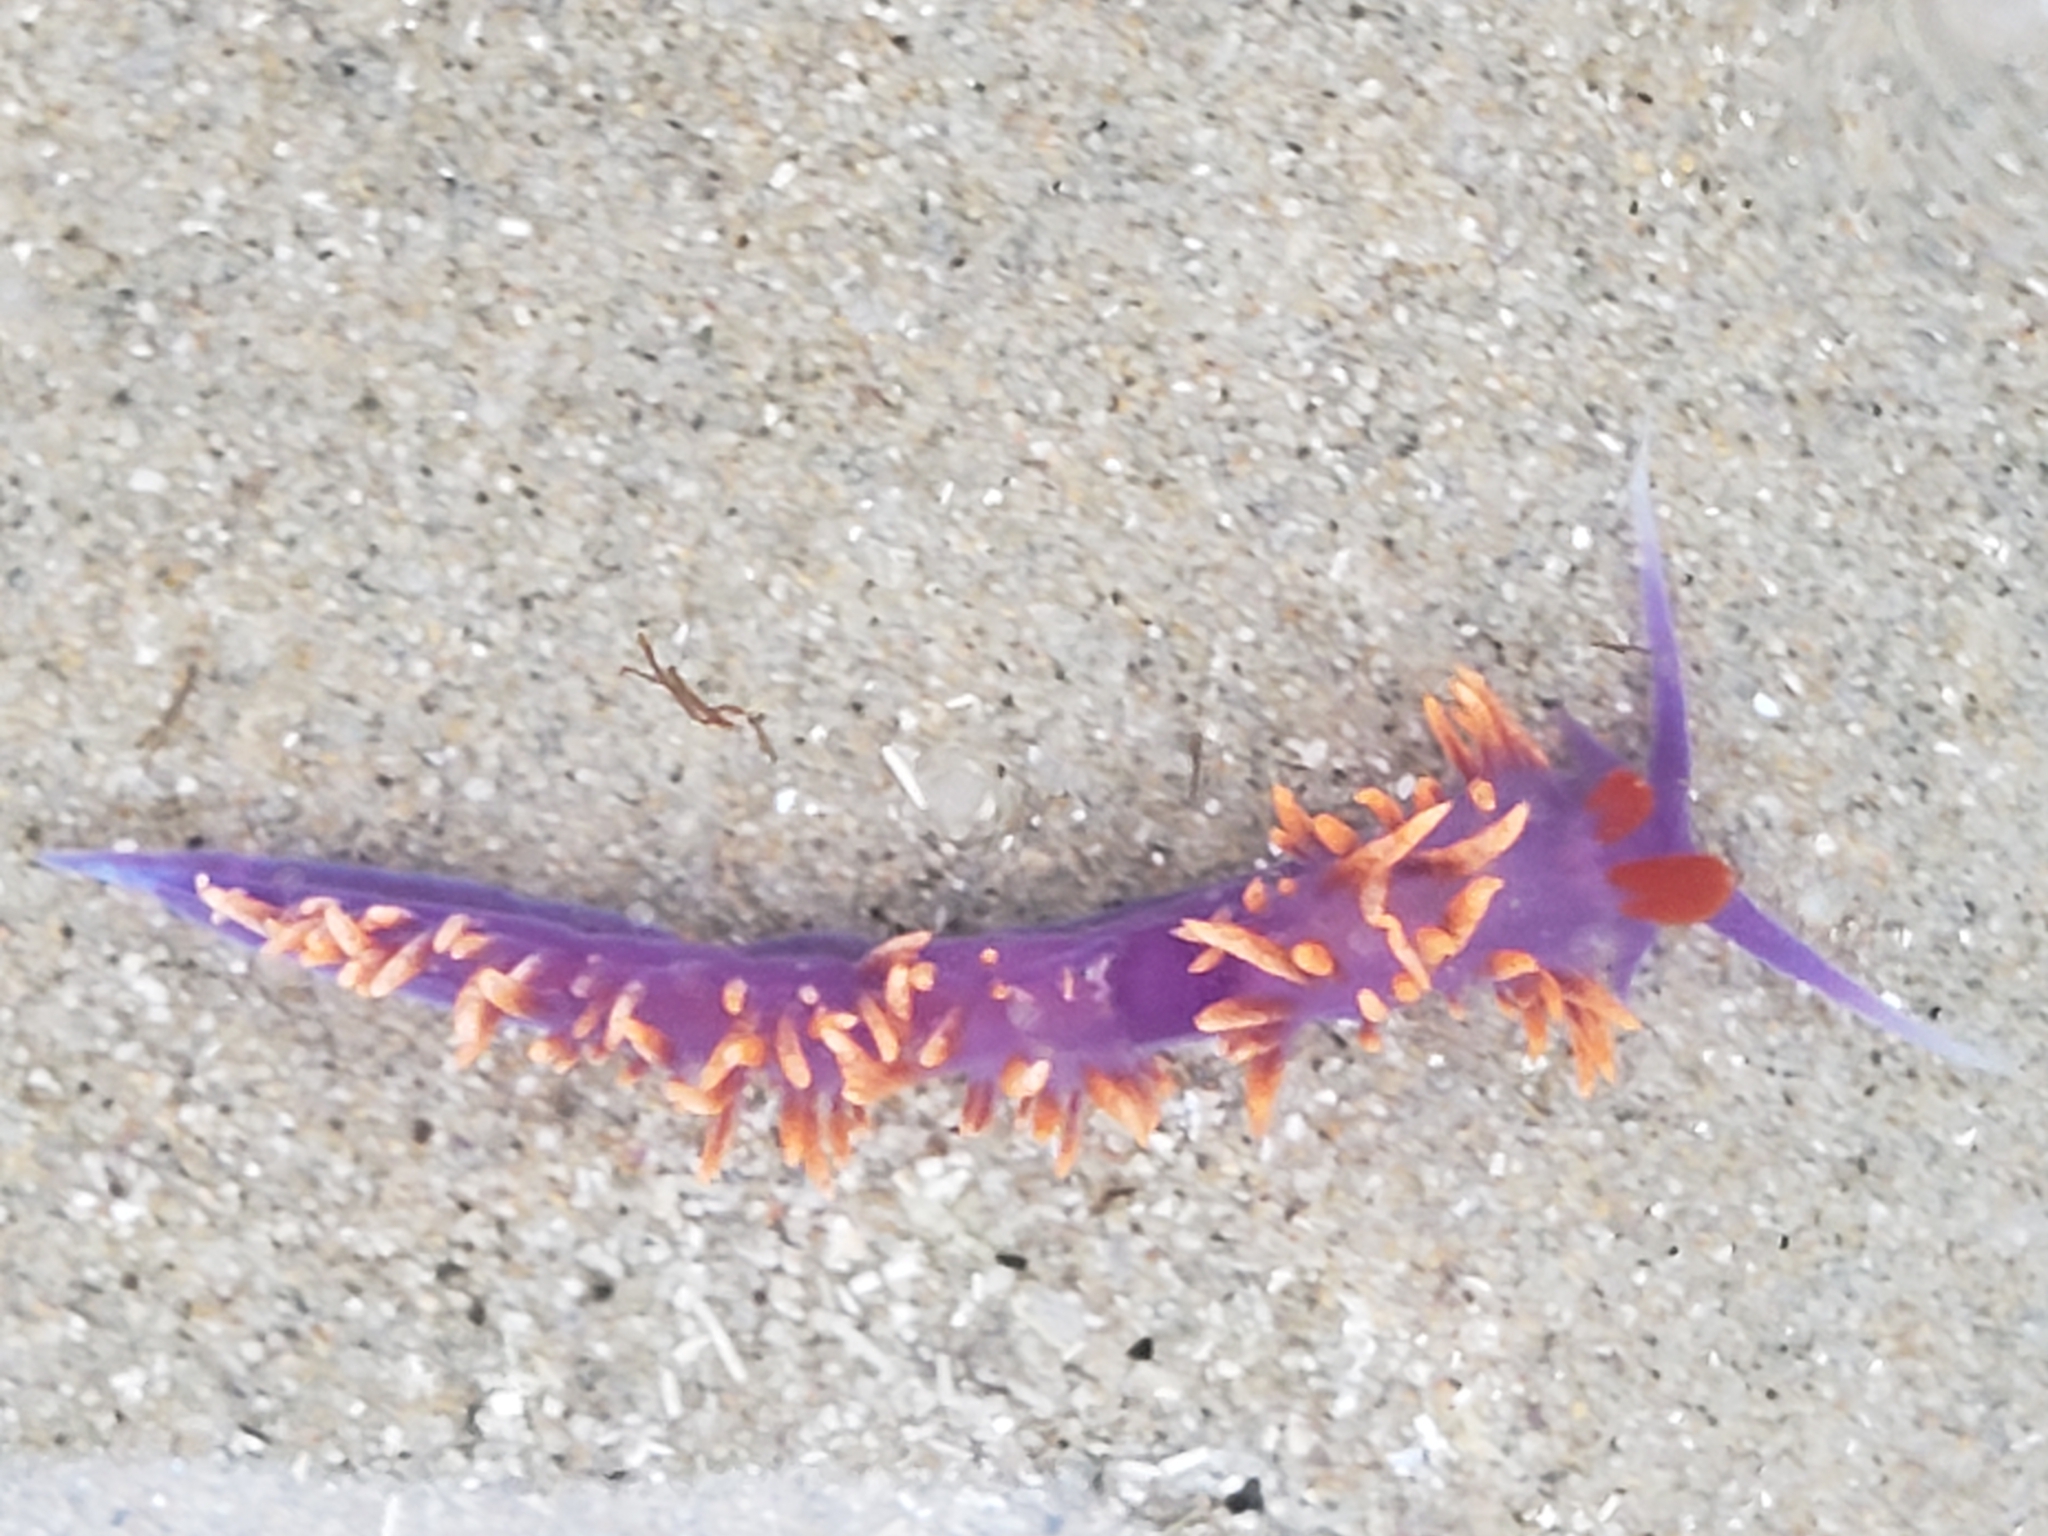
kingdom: Animalia
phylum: Mollusca
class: Gastropoda
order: Nudibranchia
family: Flabellinopsidae
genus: Flabellinopsis
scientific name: Flabellinopsis iodinea
